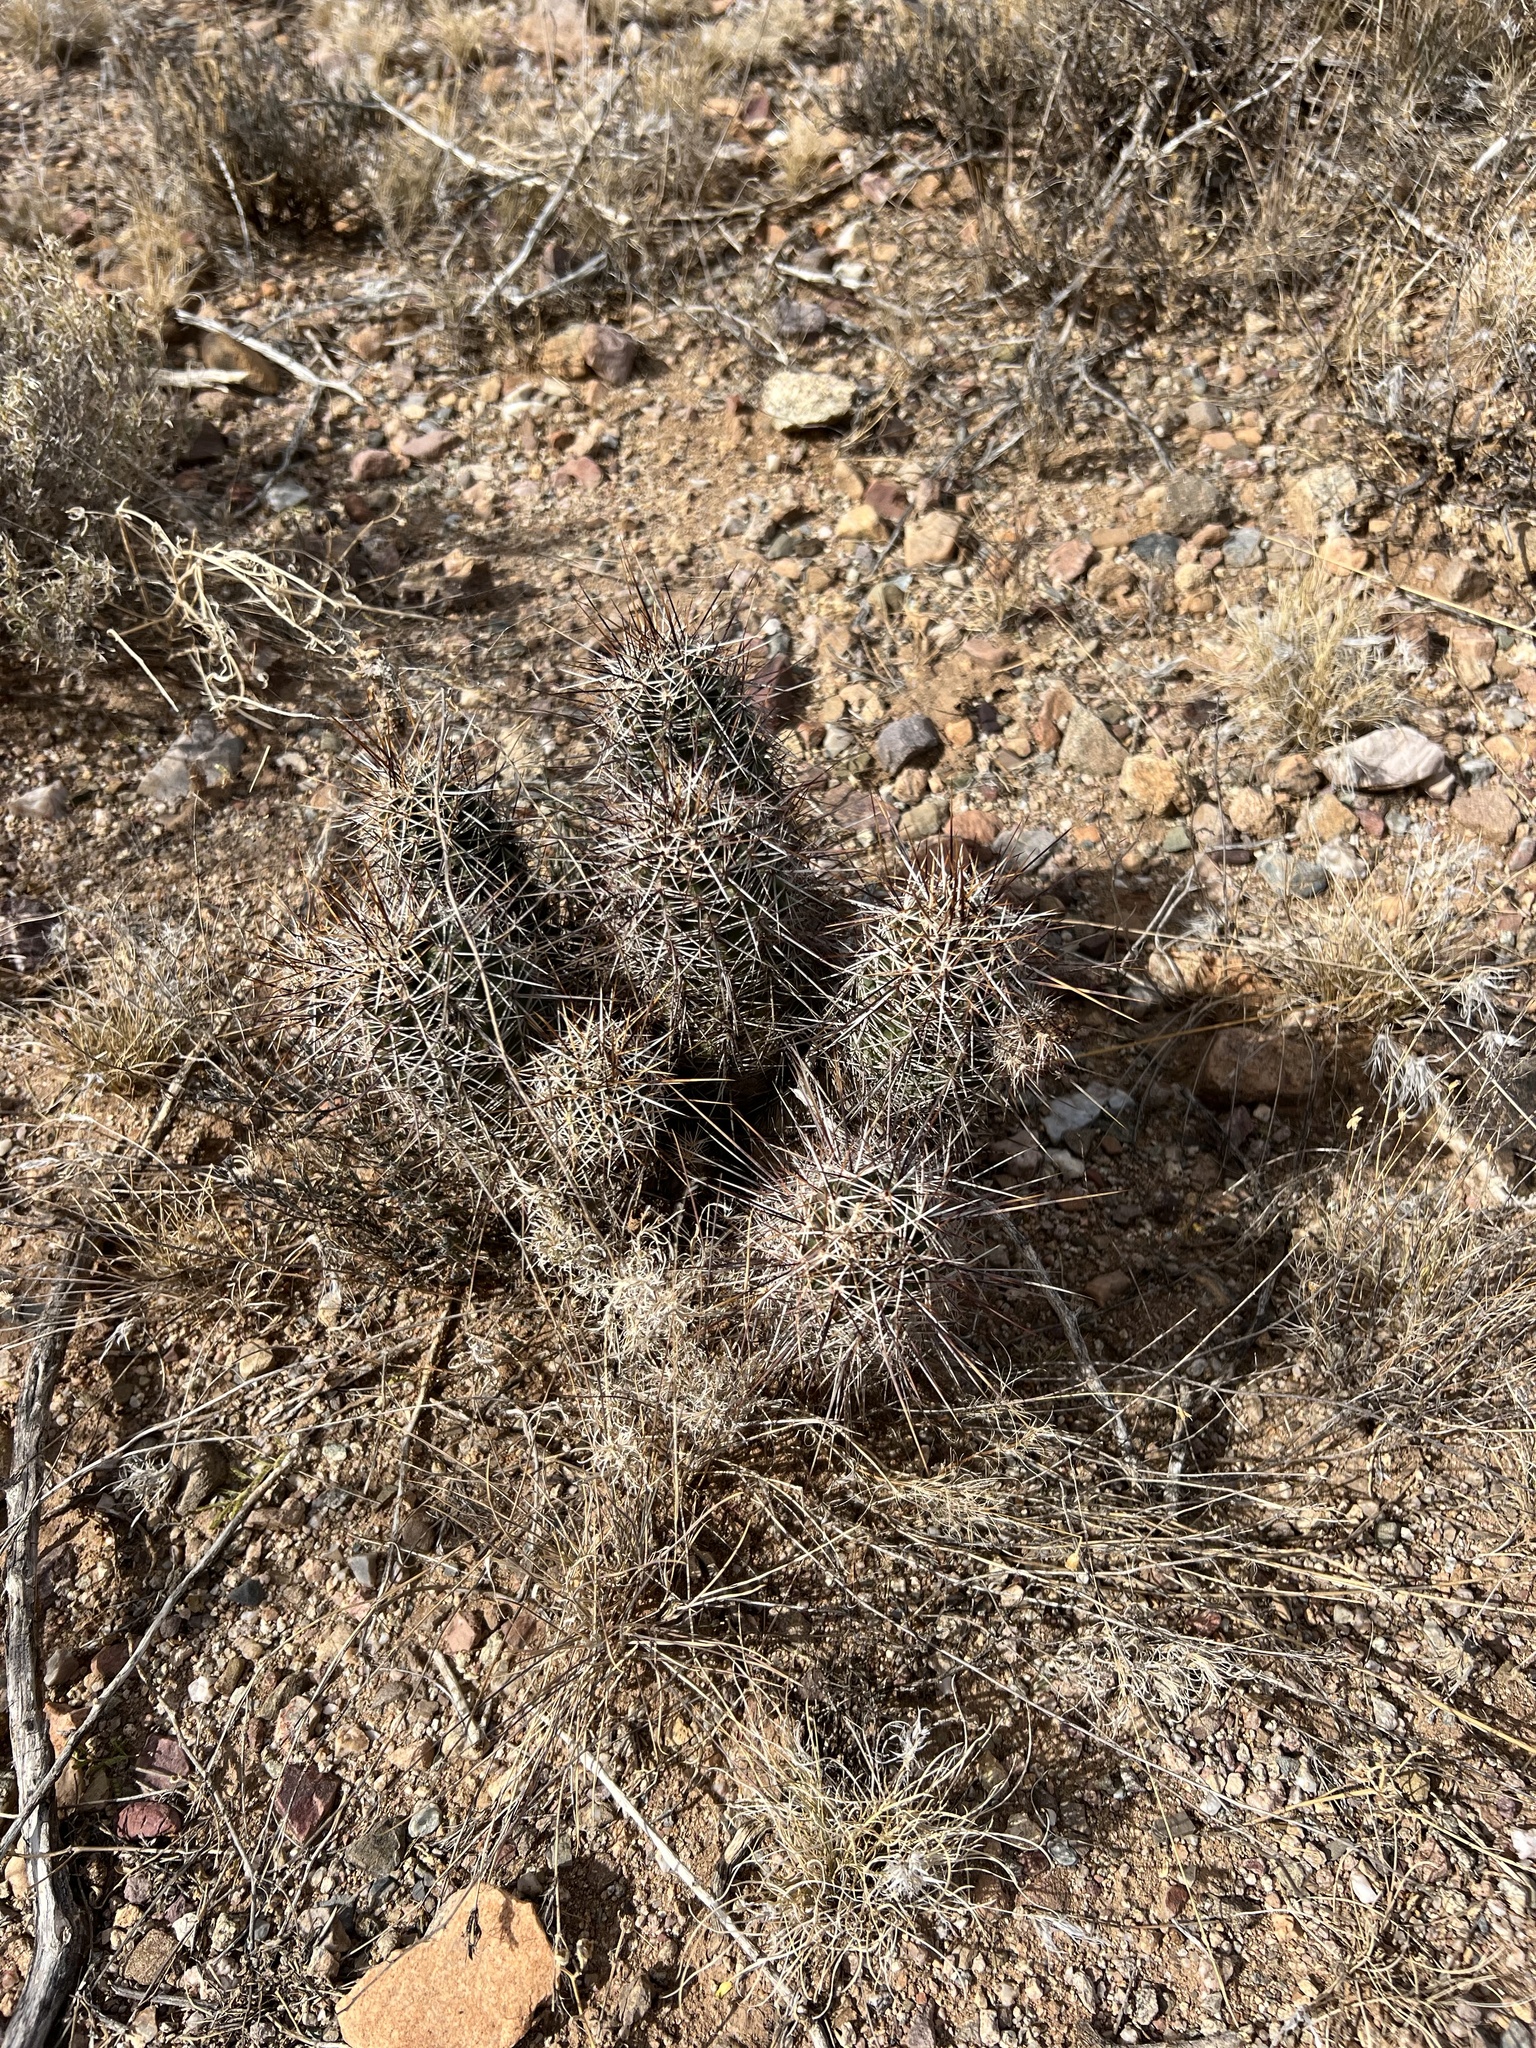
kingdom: Plantae
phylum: Tracheophyta
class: Magnoliopsida
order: Caryophyllales
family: Cactaceae
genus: Echinocereus
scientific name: Echinocereus fasciculatus
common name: Bundle hedgehog
